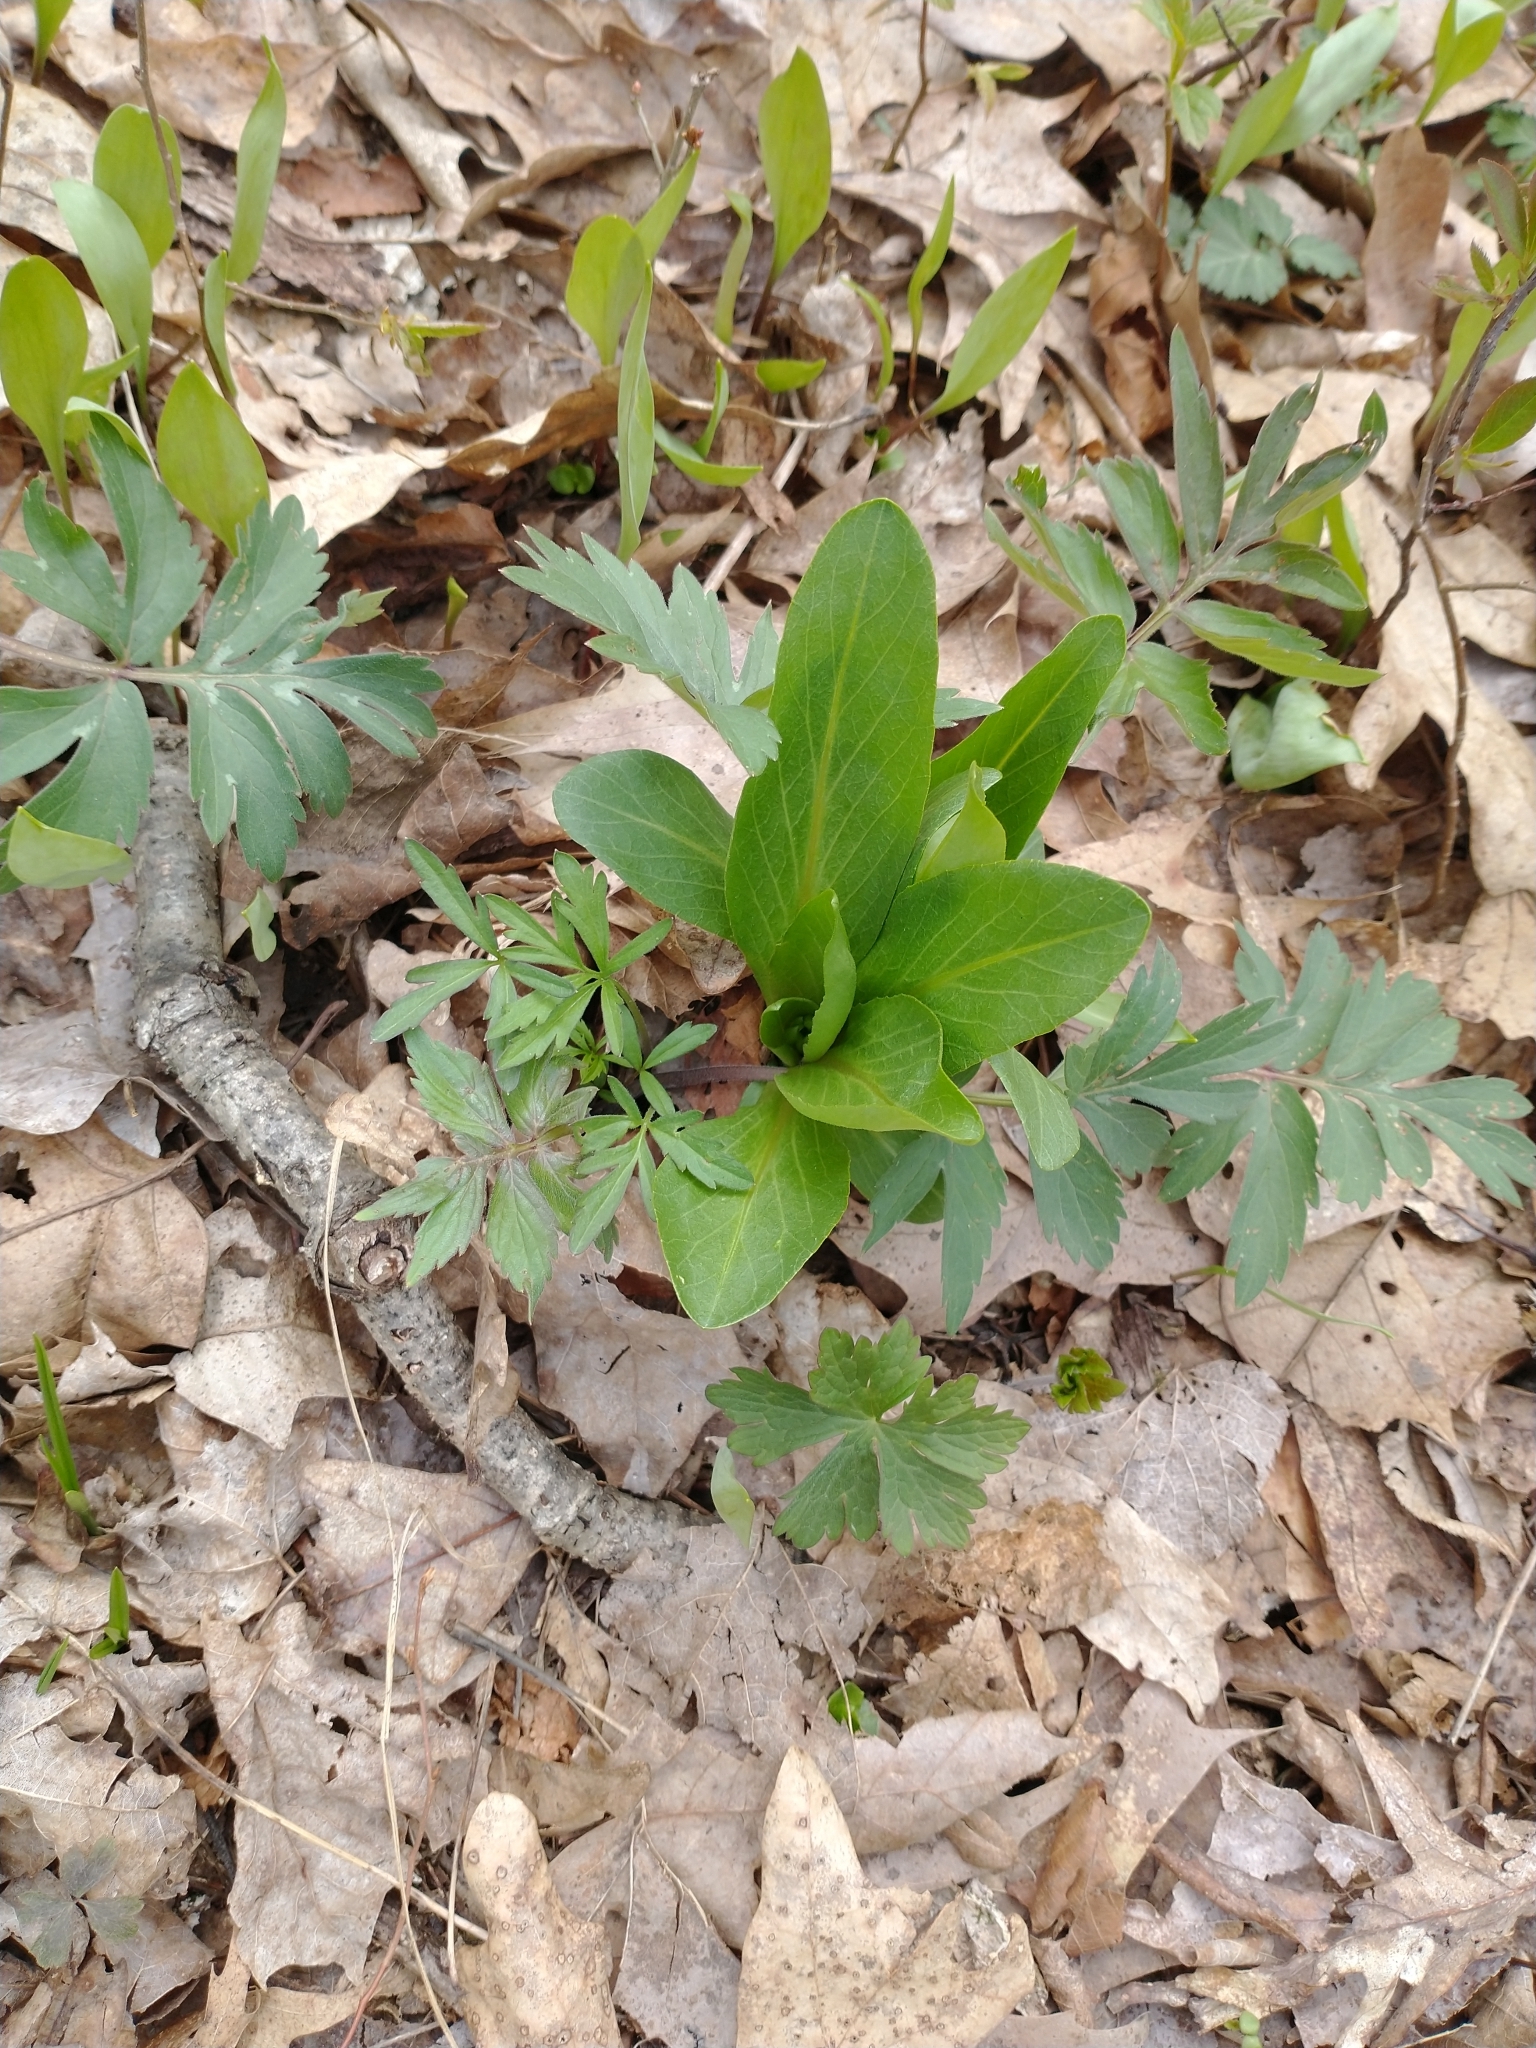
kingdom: Plantae
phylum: Tracheophyta
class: Magnoliopsida
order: Ericales
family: Primulaceae
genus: Dodecatheon
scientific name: Dodecatheon meadia
